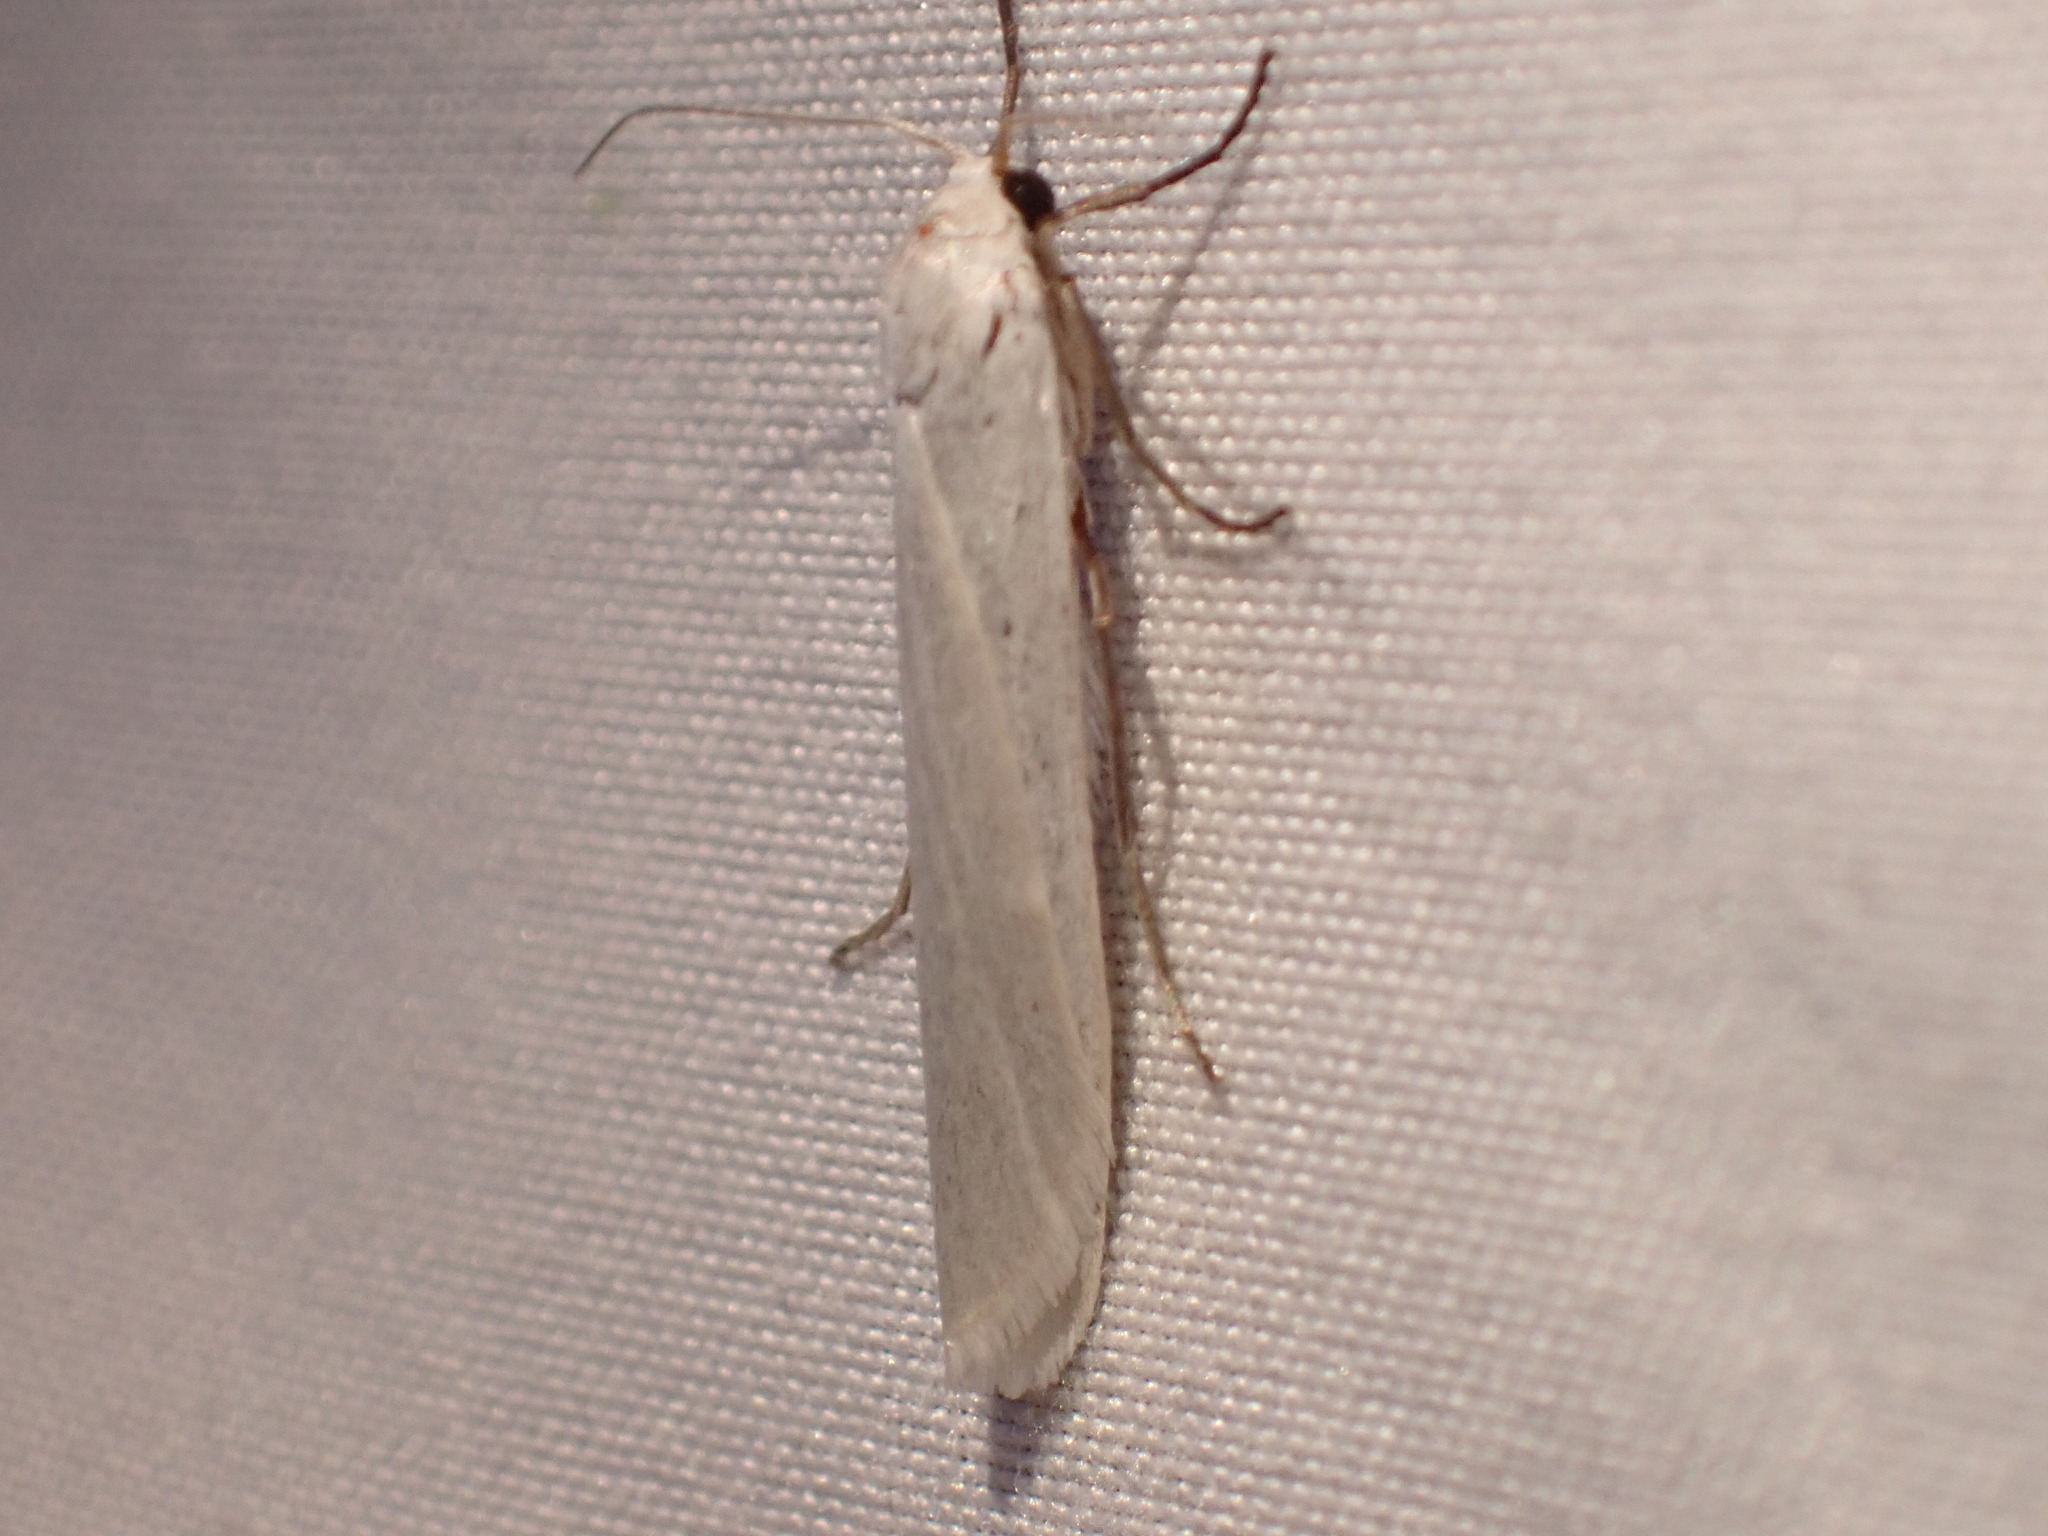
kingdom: Animalia
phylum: Arthropoda
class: Insecta
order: Lepidoptera
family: Erebidae
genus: Crambidia
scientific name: Crambidia casta
